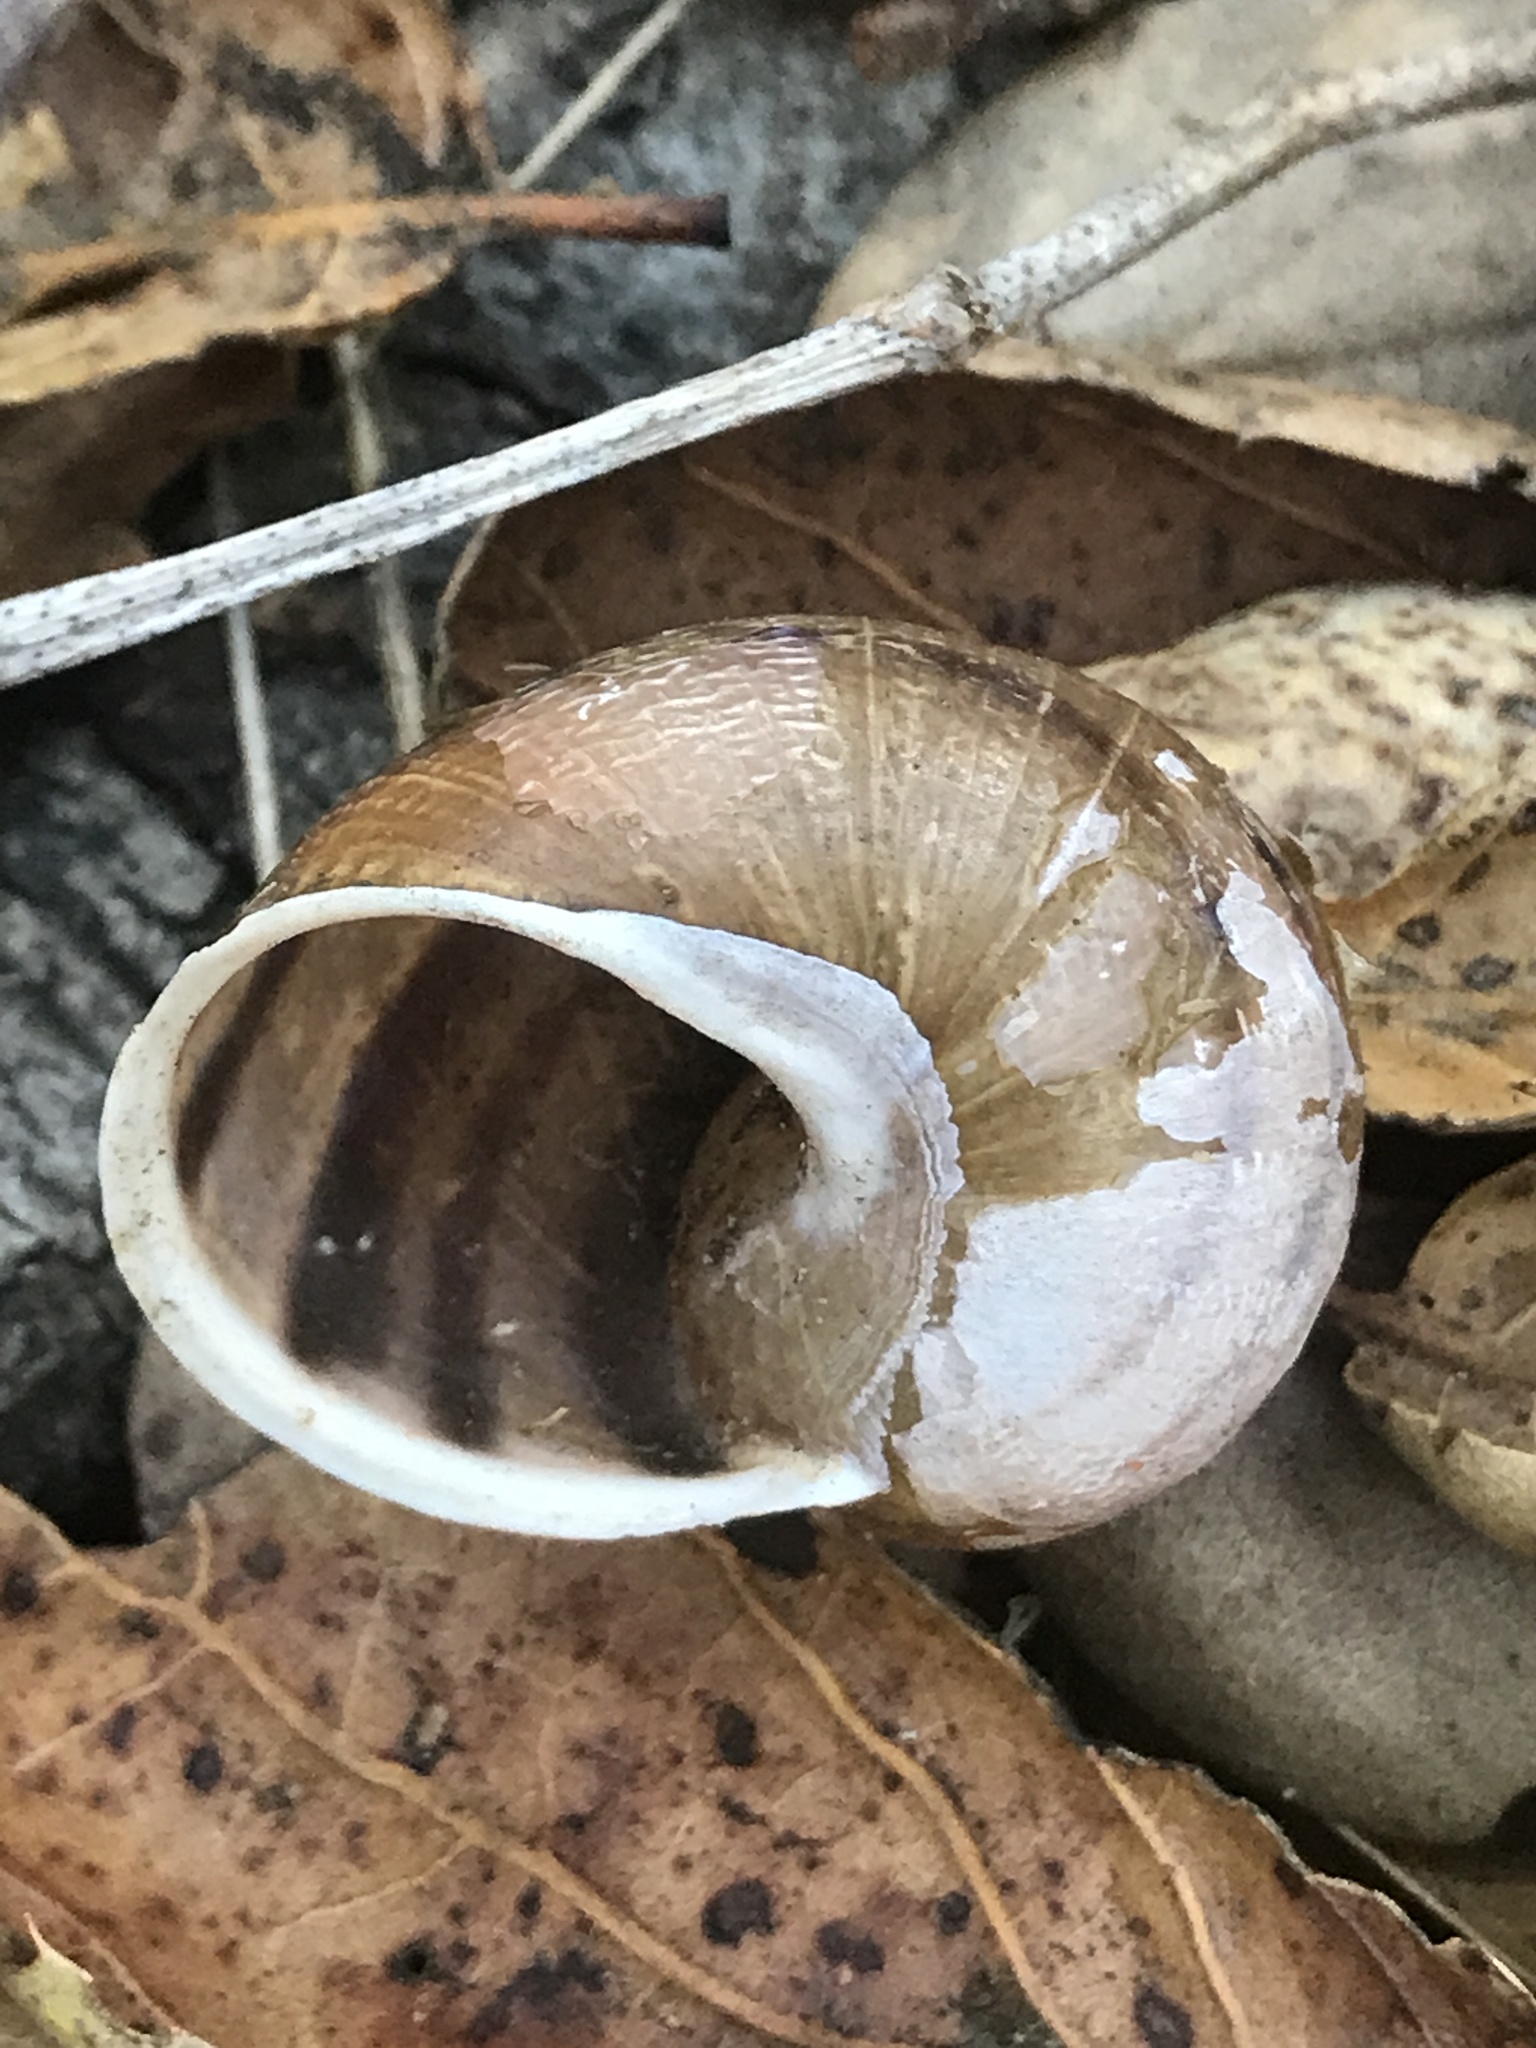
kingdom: Animalia
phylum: Mollusca
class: Gastropoda
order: Stylommatophora
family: Helicidae
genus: Cornu
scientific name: Cornu aspersum
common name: Brown garden snail
